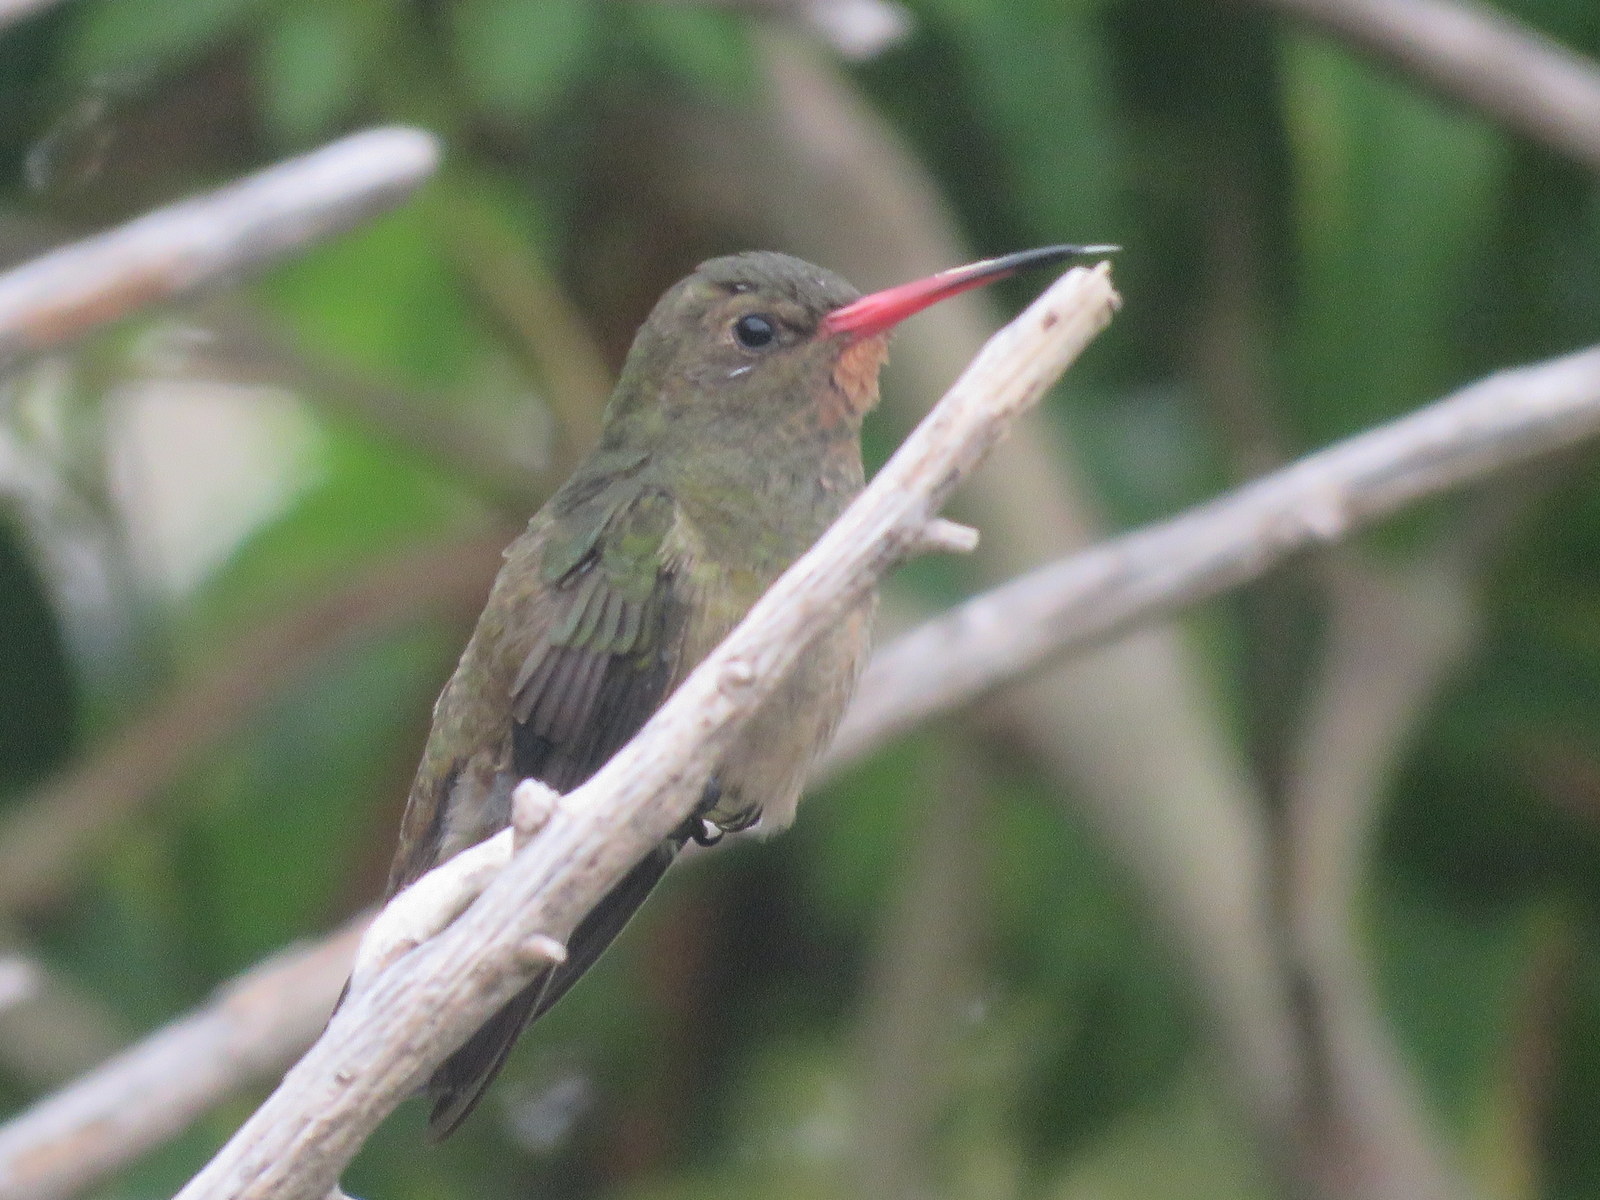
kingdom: Animalia
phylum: Chordata
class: Aves
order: Apodiformes
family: Trochilidae
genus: Hylocharis
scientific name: Hylocharis chrysura
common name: Gilded sapphire
